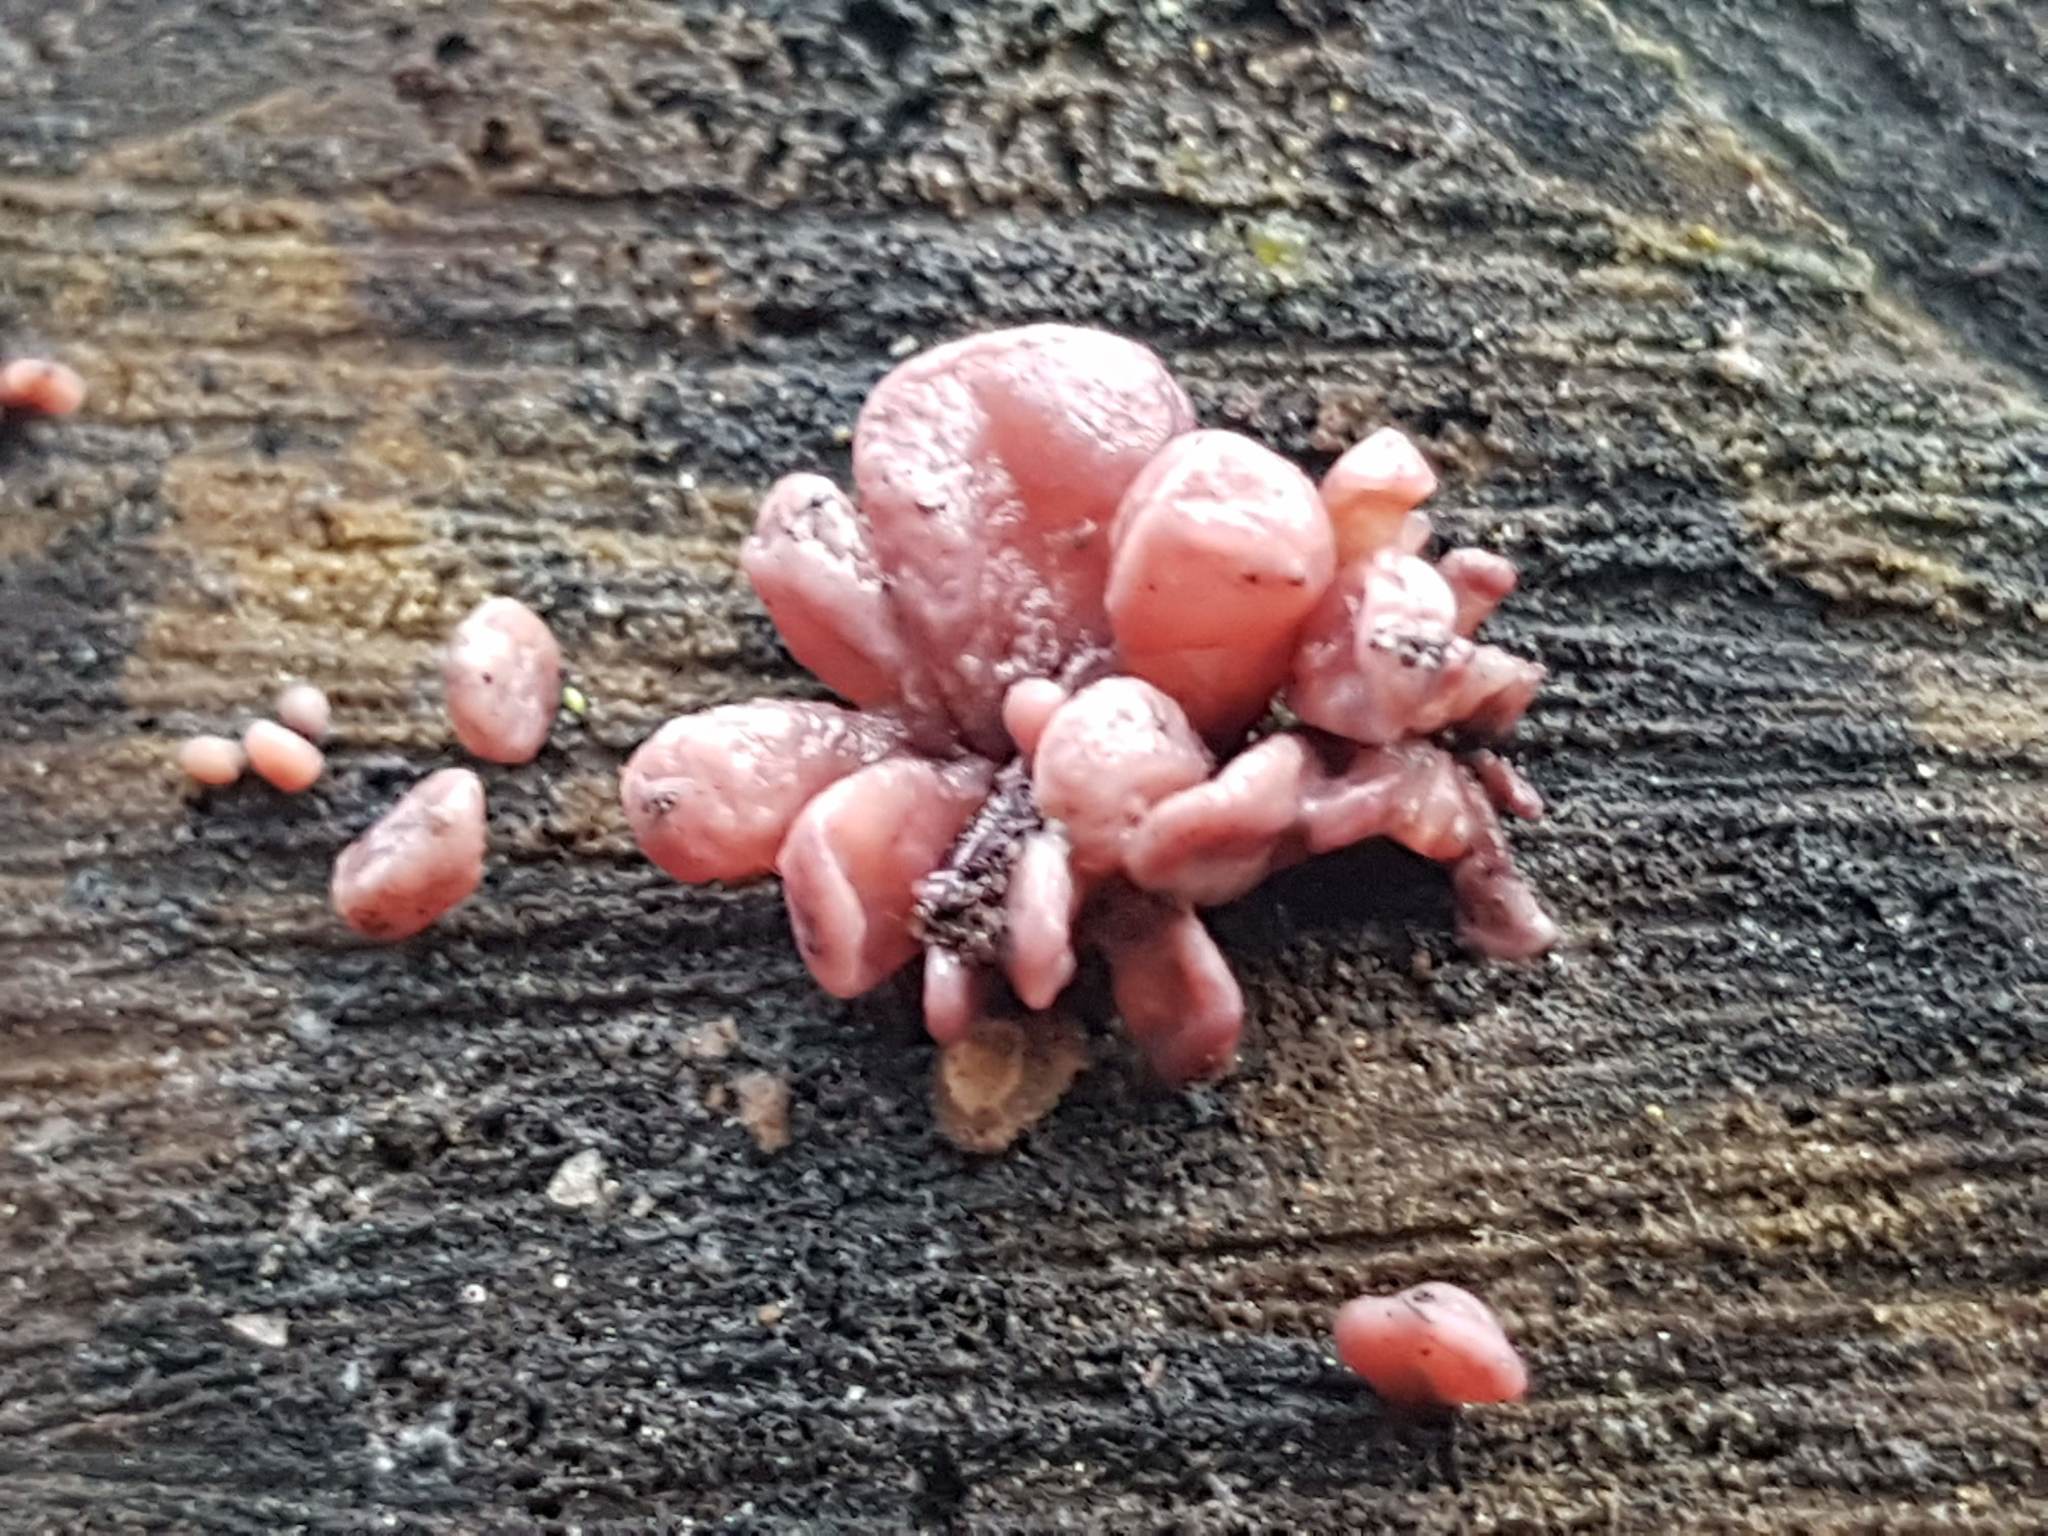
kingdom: Fungi
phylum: Ascomycota
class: Leotiomycetes
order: Helotiales
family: Gelatinodiscaceae
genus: Ascocoryne
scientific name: Ascocoryne sarcoides
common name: Purple jellydisc
